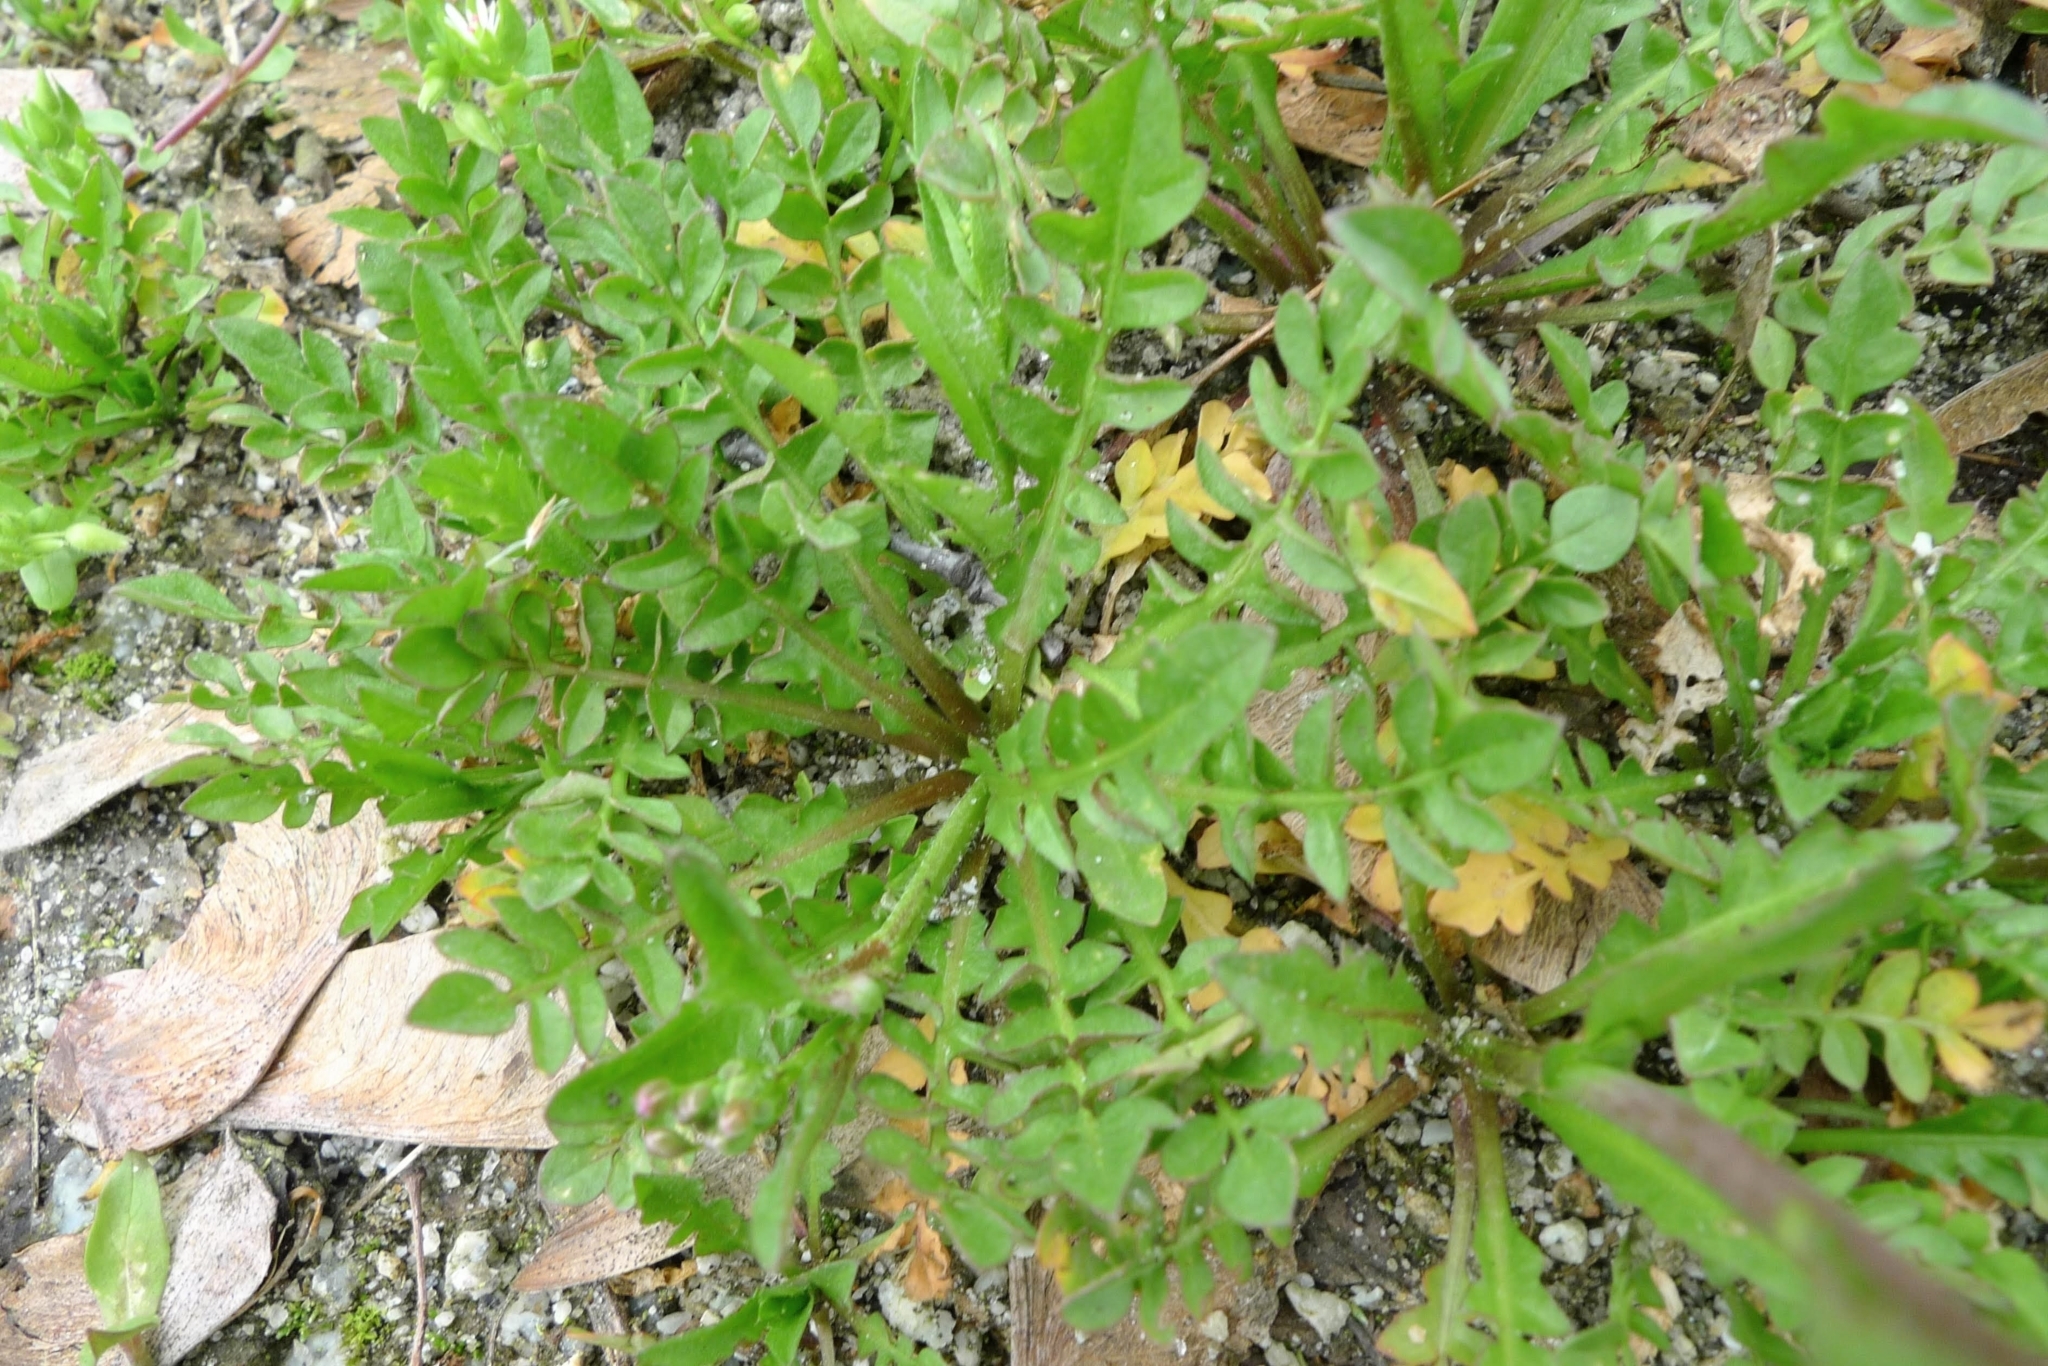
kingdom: Plantae
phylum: Tracheophyta
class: Magnoliopsida
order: Brassicales
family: Brassicaceae
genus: Capsella
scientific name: Capsella bursa-pastoris
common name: Shepherd's purse
